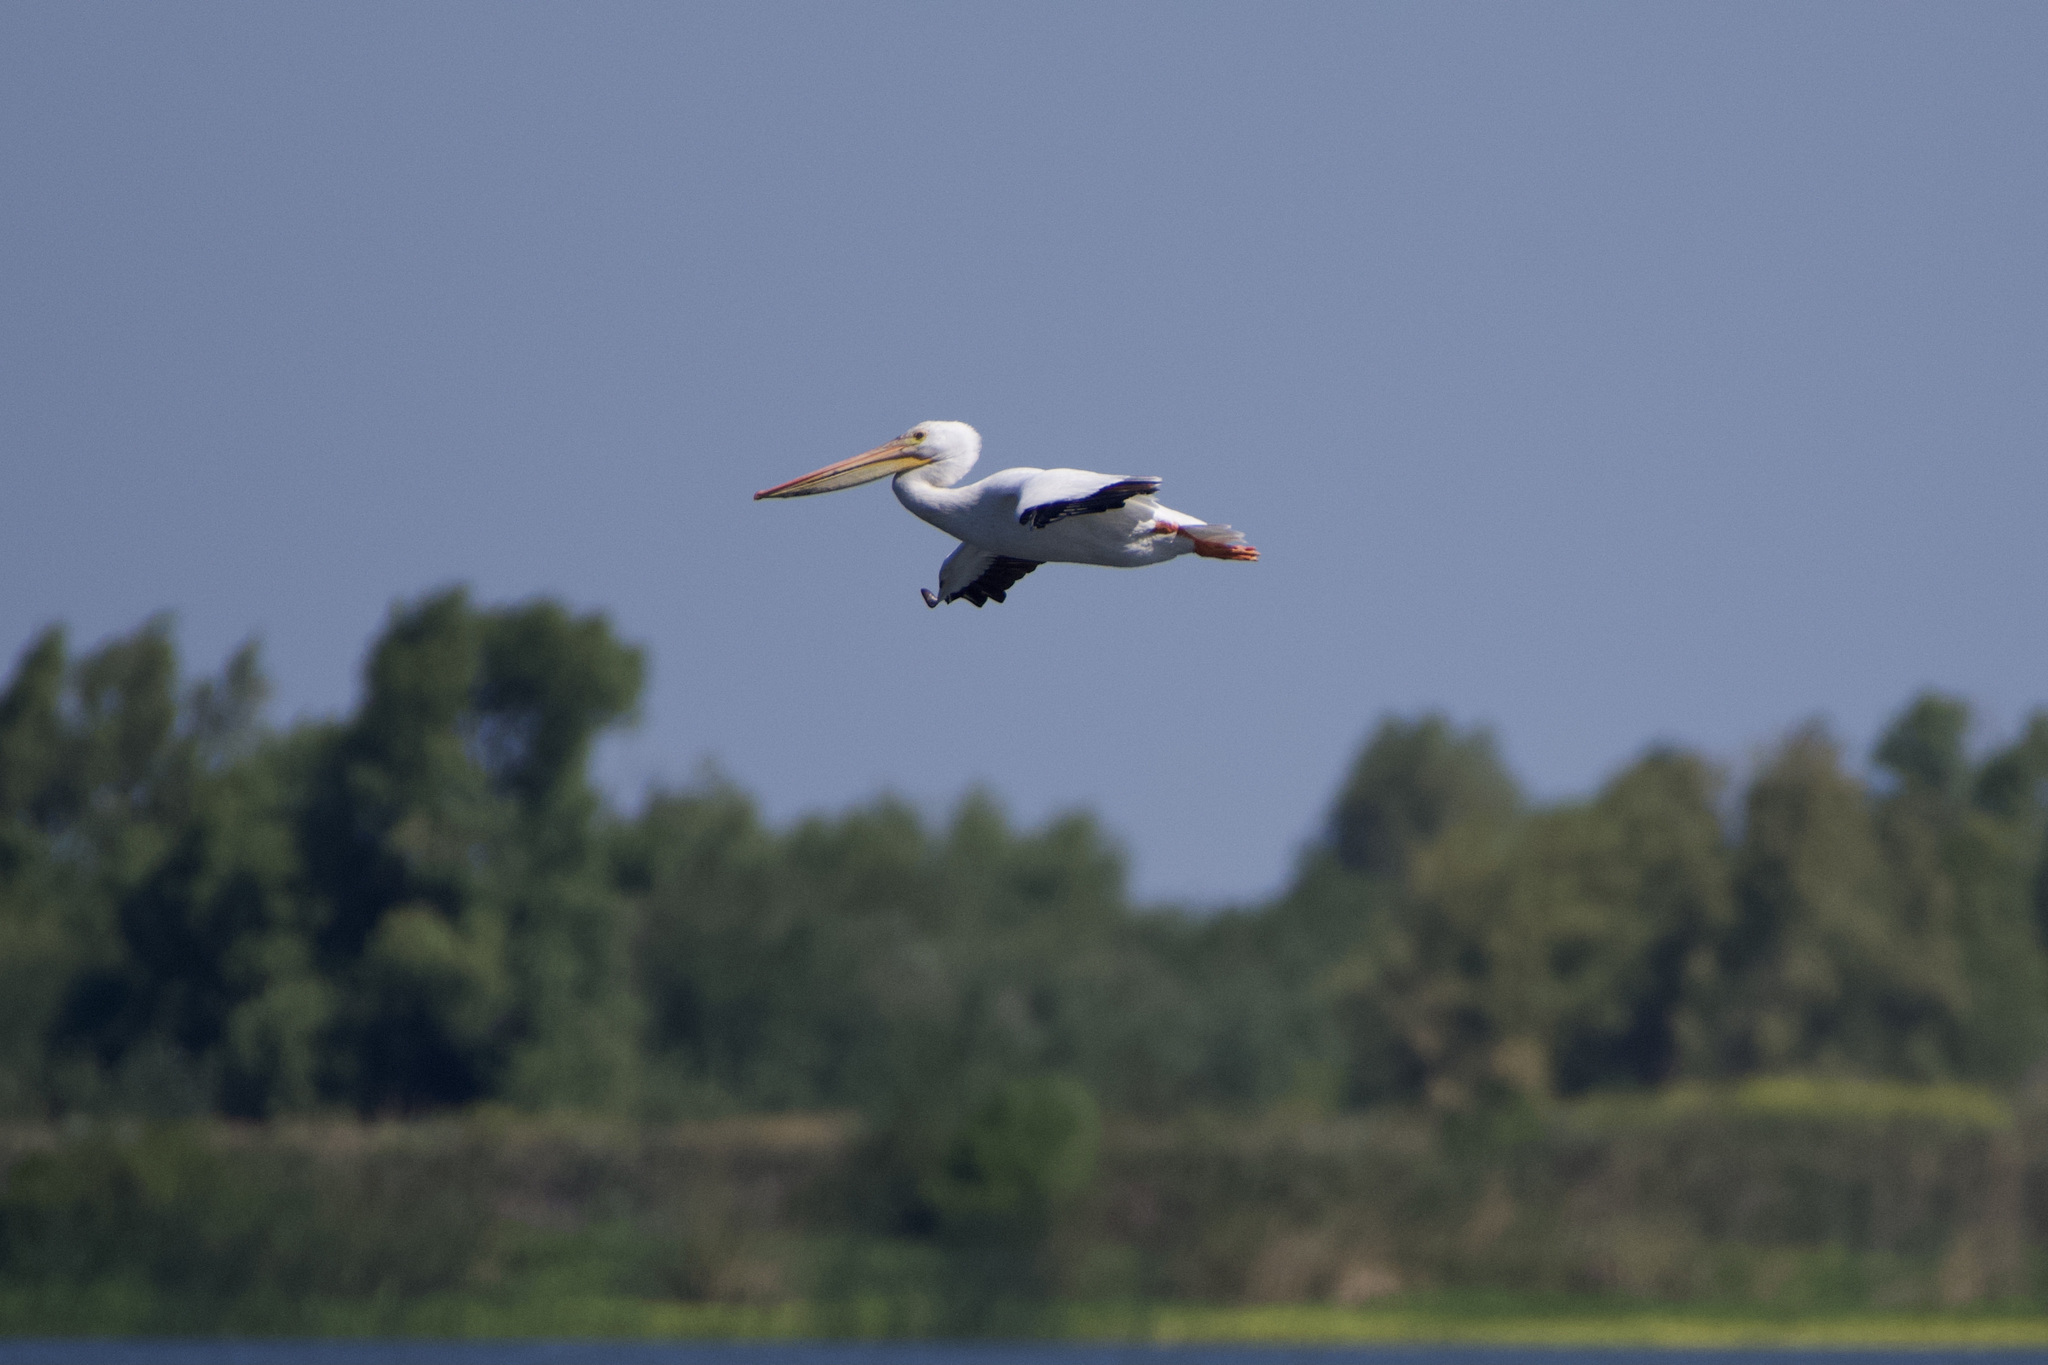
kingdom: Animalia
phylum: Chordata
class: Aves
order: Pelecaniformes
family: Pelecanidae
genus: Pelecanus
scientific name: Pelecanus erythrorhynchos
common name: American white pelican
